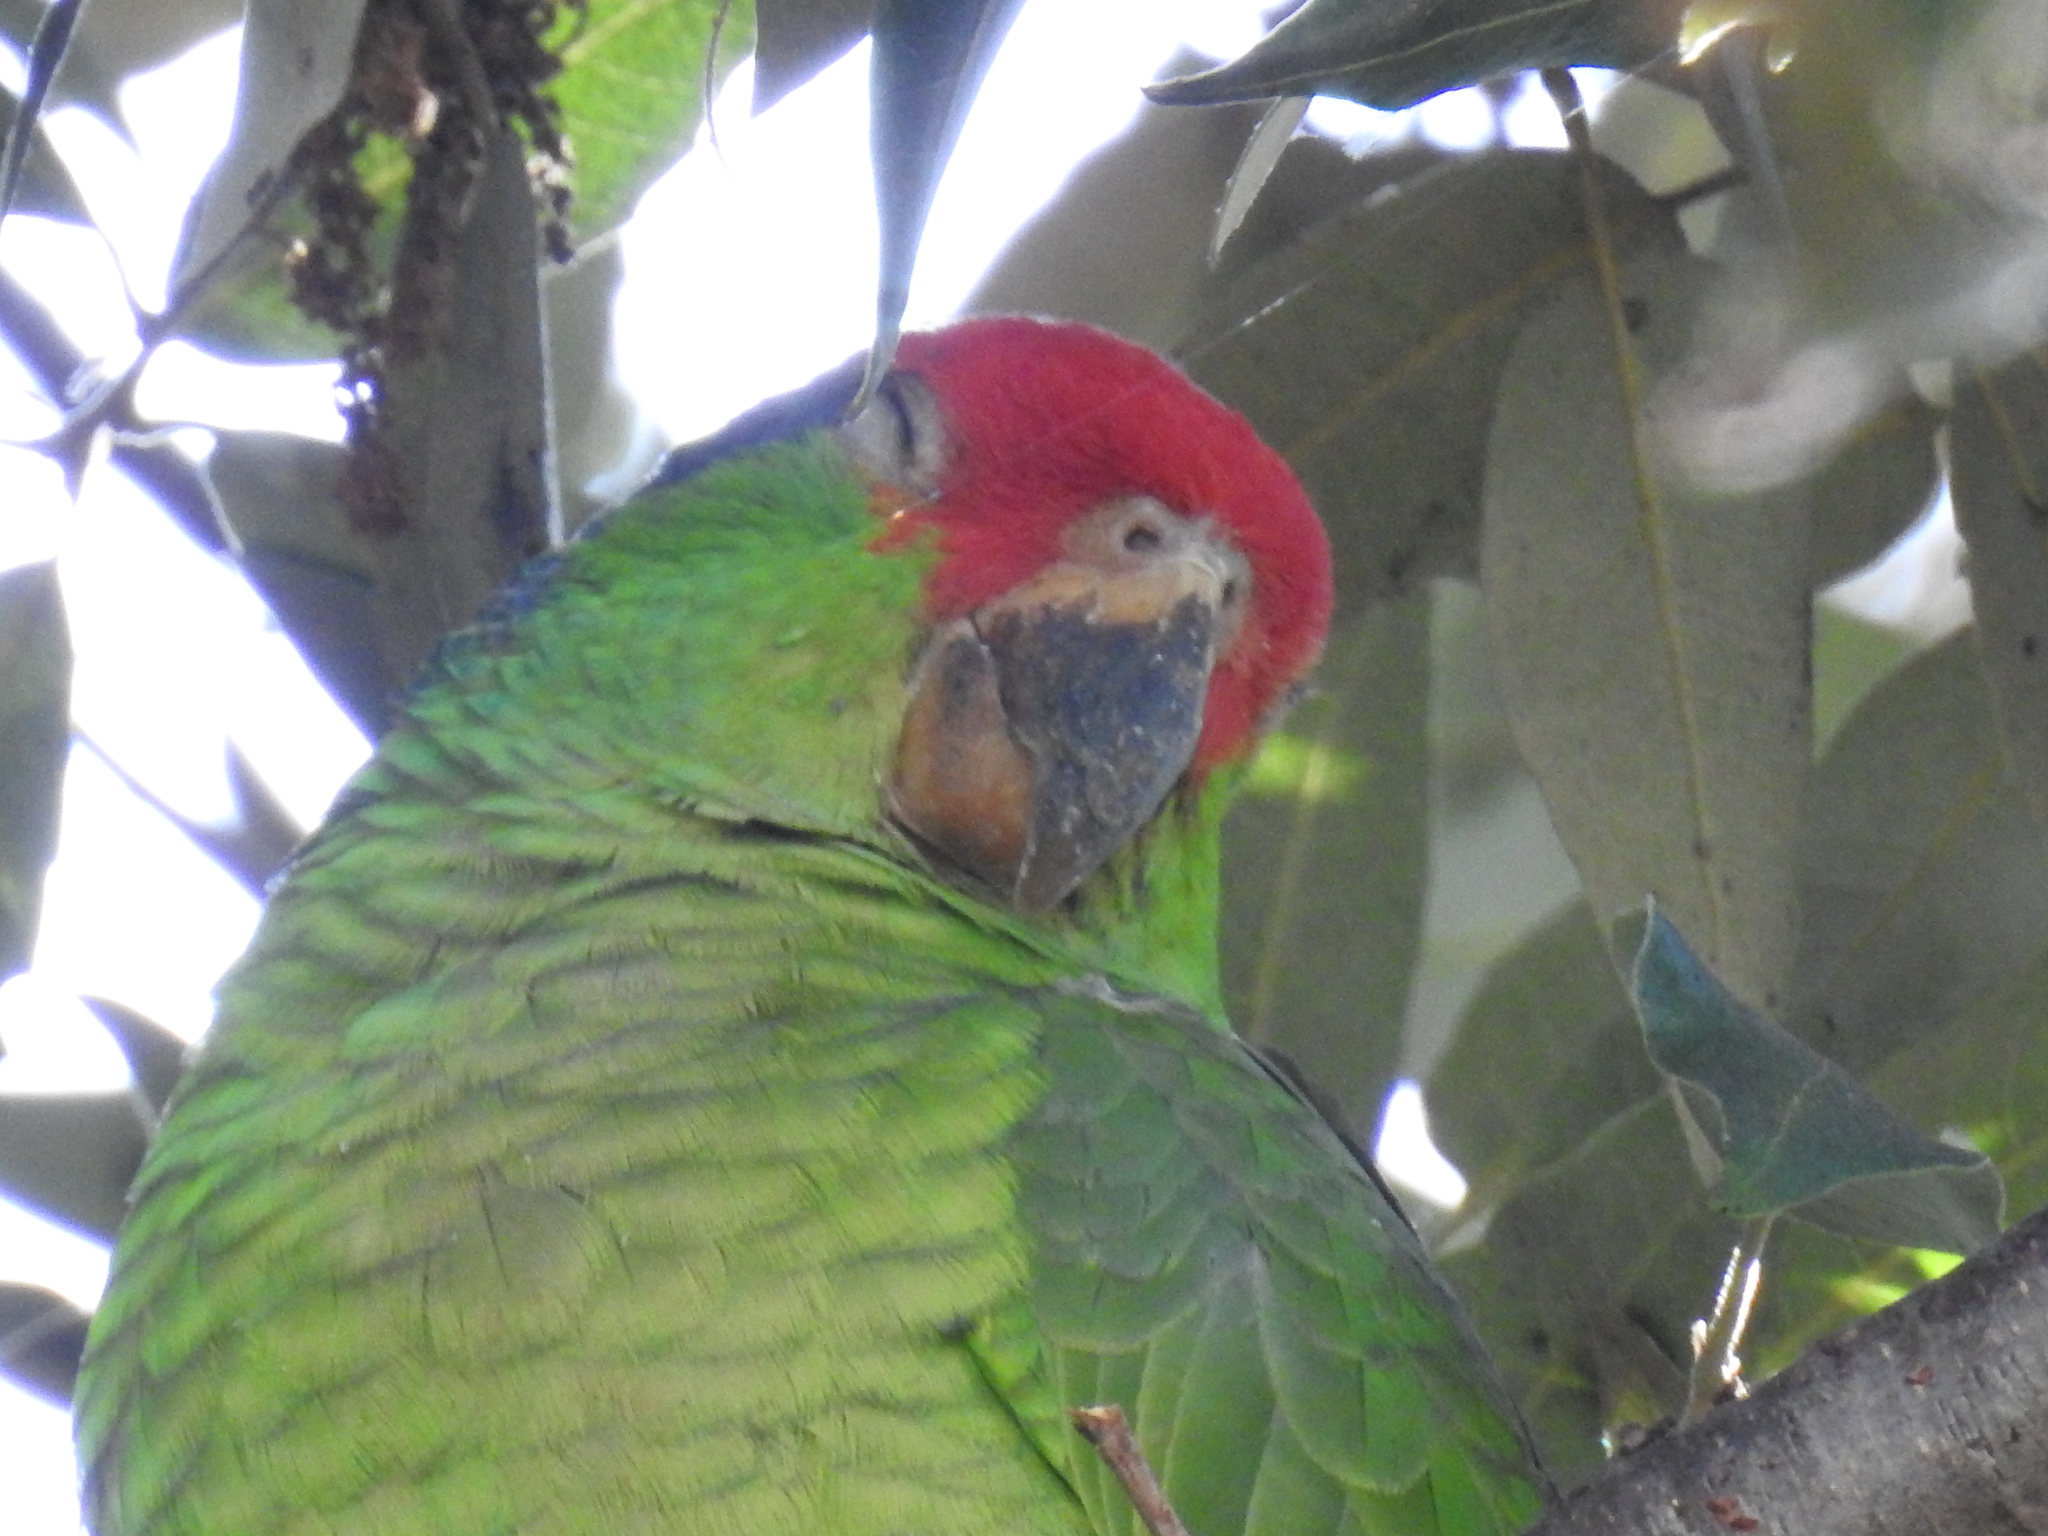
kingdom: Animalia
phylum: Chordata
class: Aves
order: Psittaciformes
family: Psittacidae
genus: Amazona
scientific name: Amazona viridigenalis
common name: Red-crowned amazon
